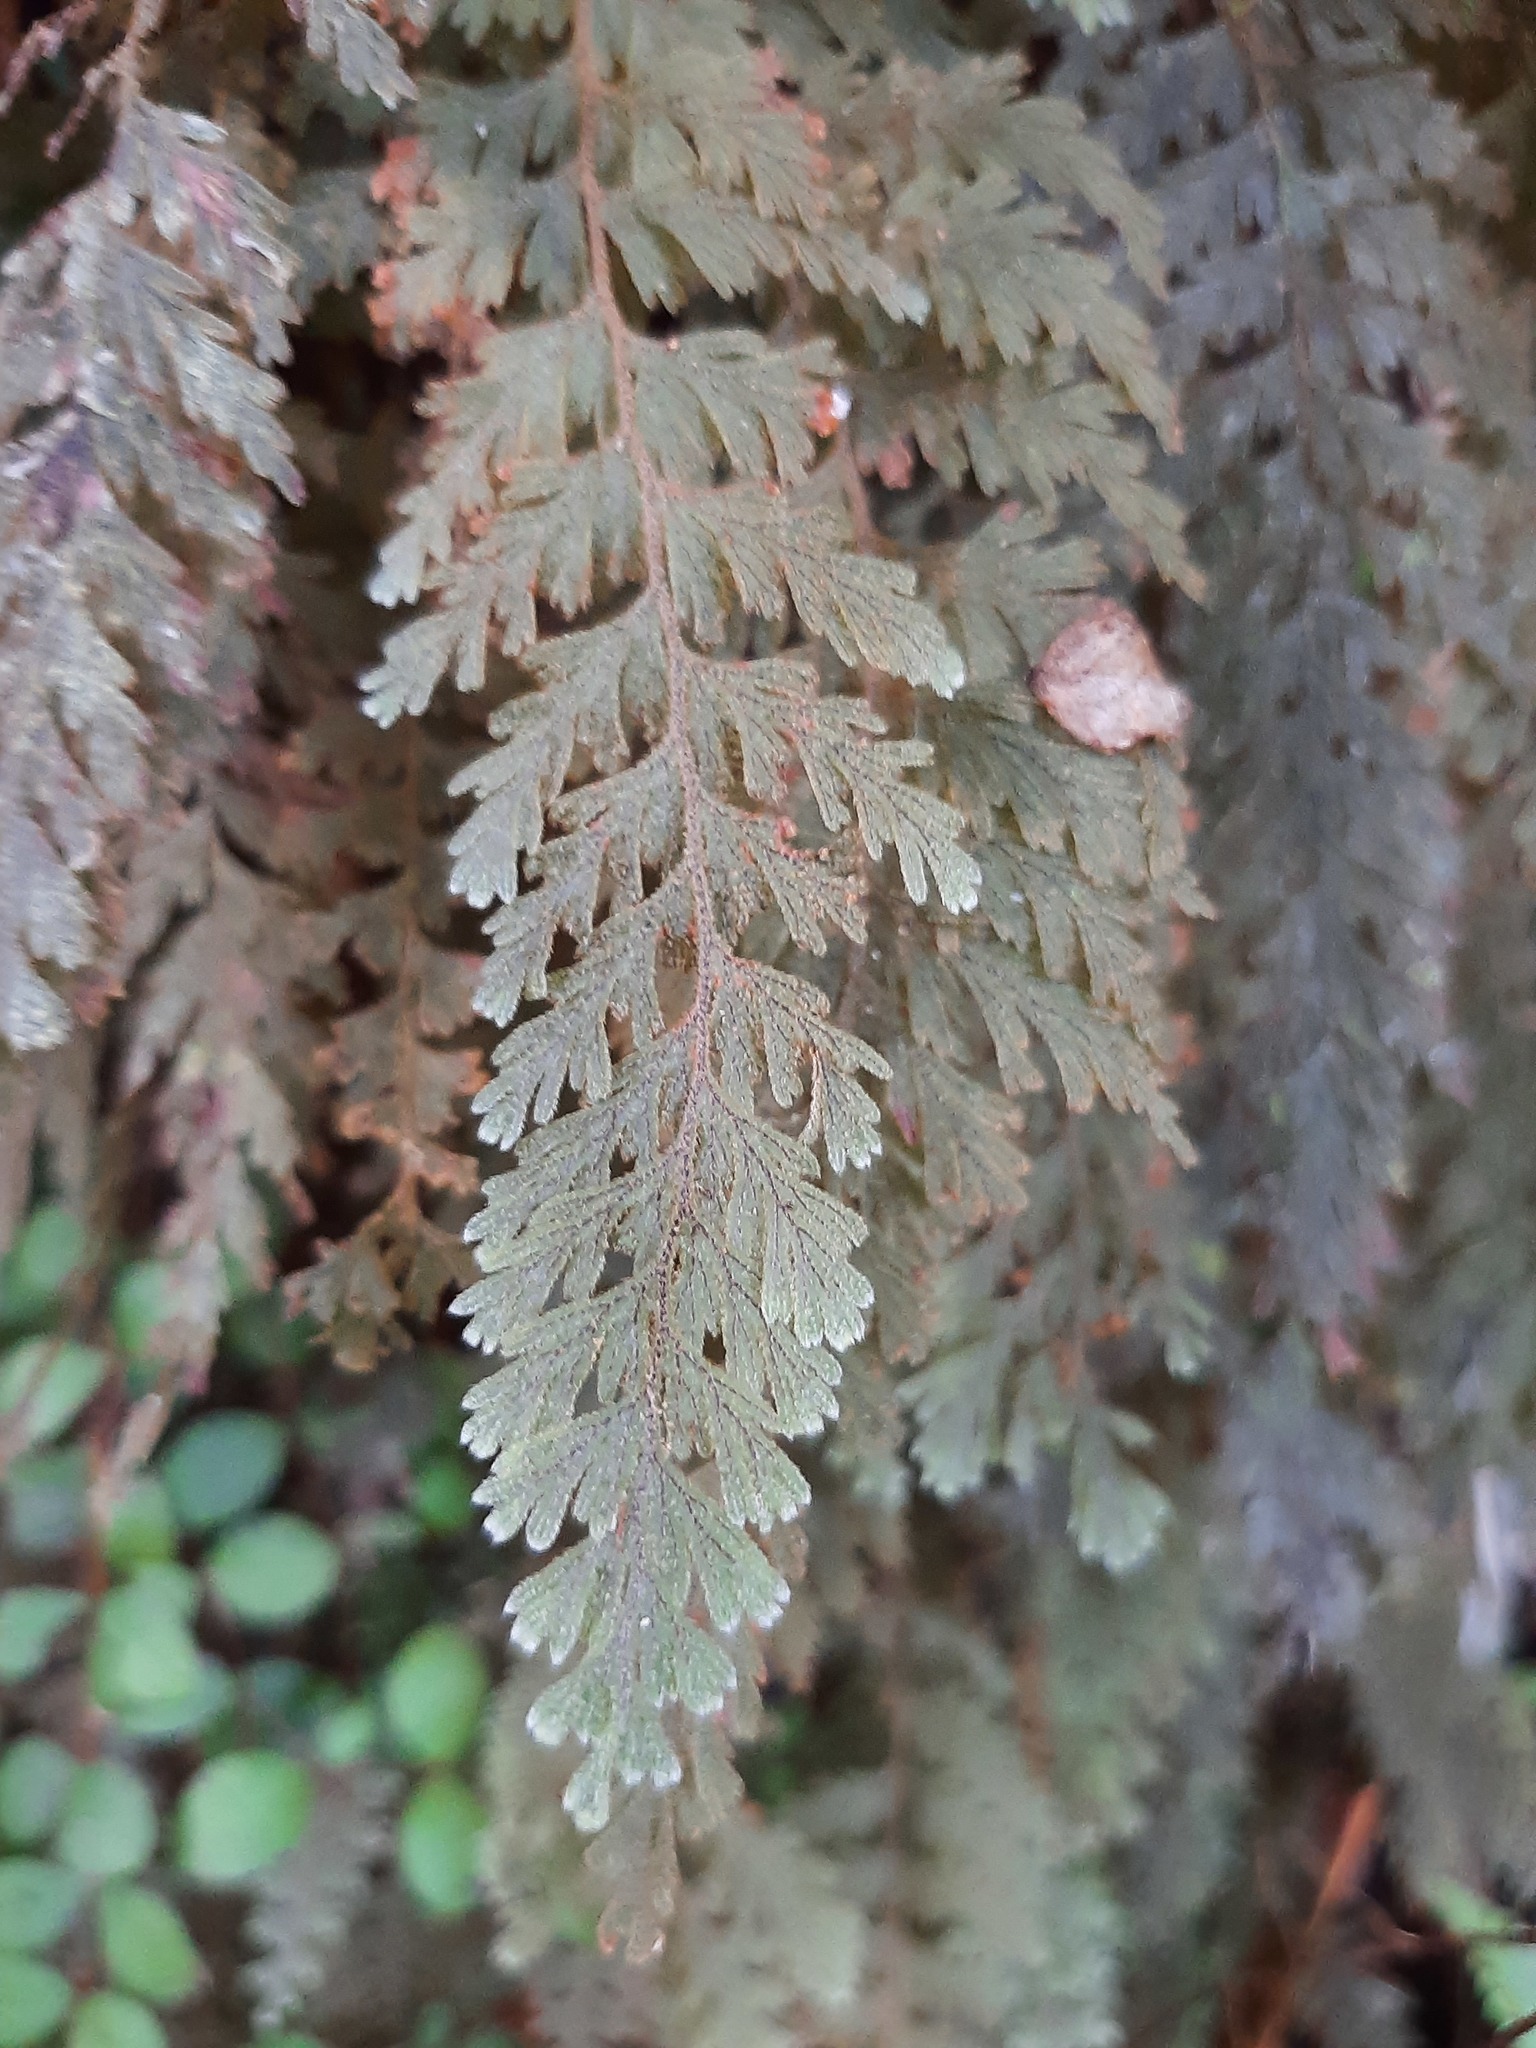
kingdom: Plantae
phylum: Tracheophyta
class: Polypodiopsida
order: Hymenophyllales
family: Hymenophyllaceae
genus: Hymenophyllum
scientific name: Hymenophyllum frankliniae
